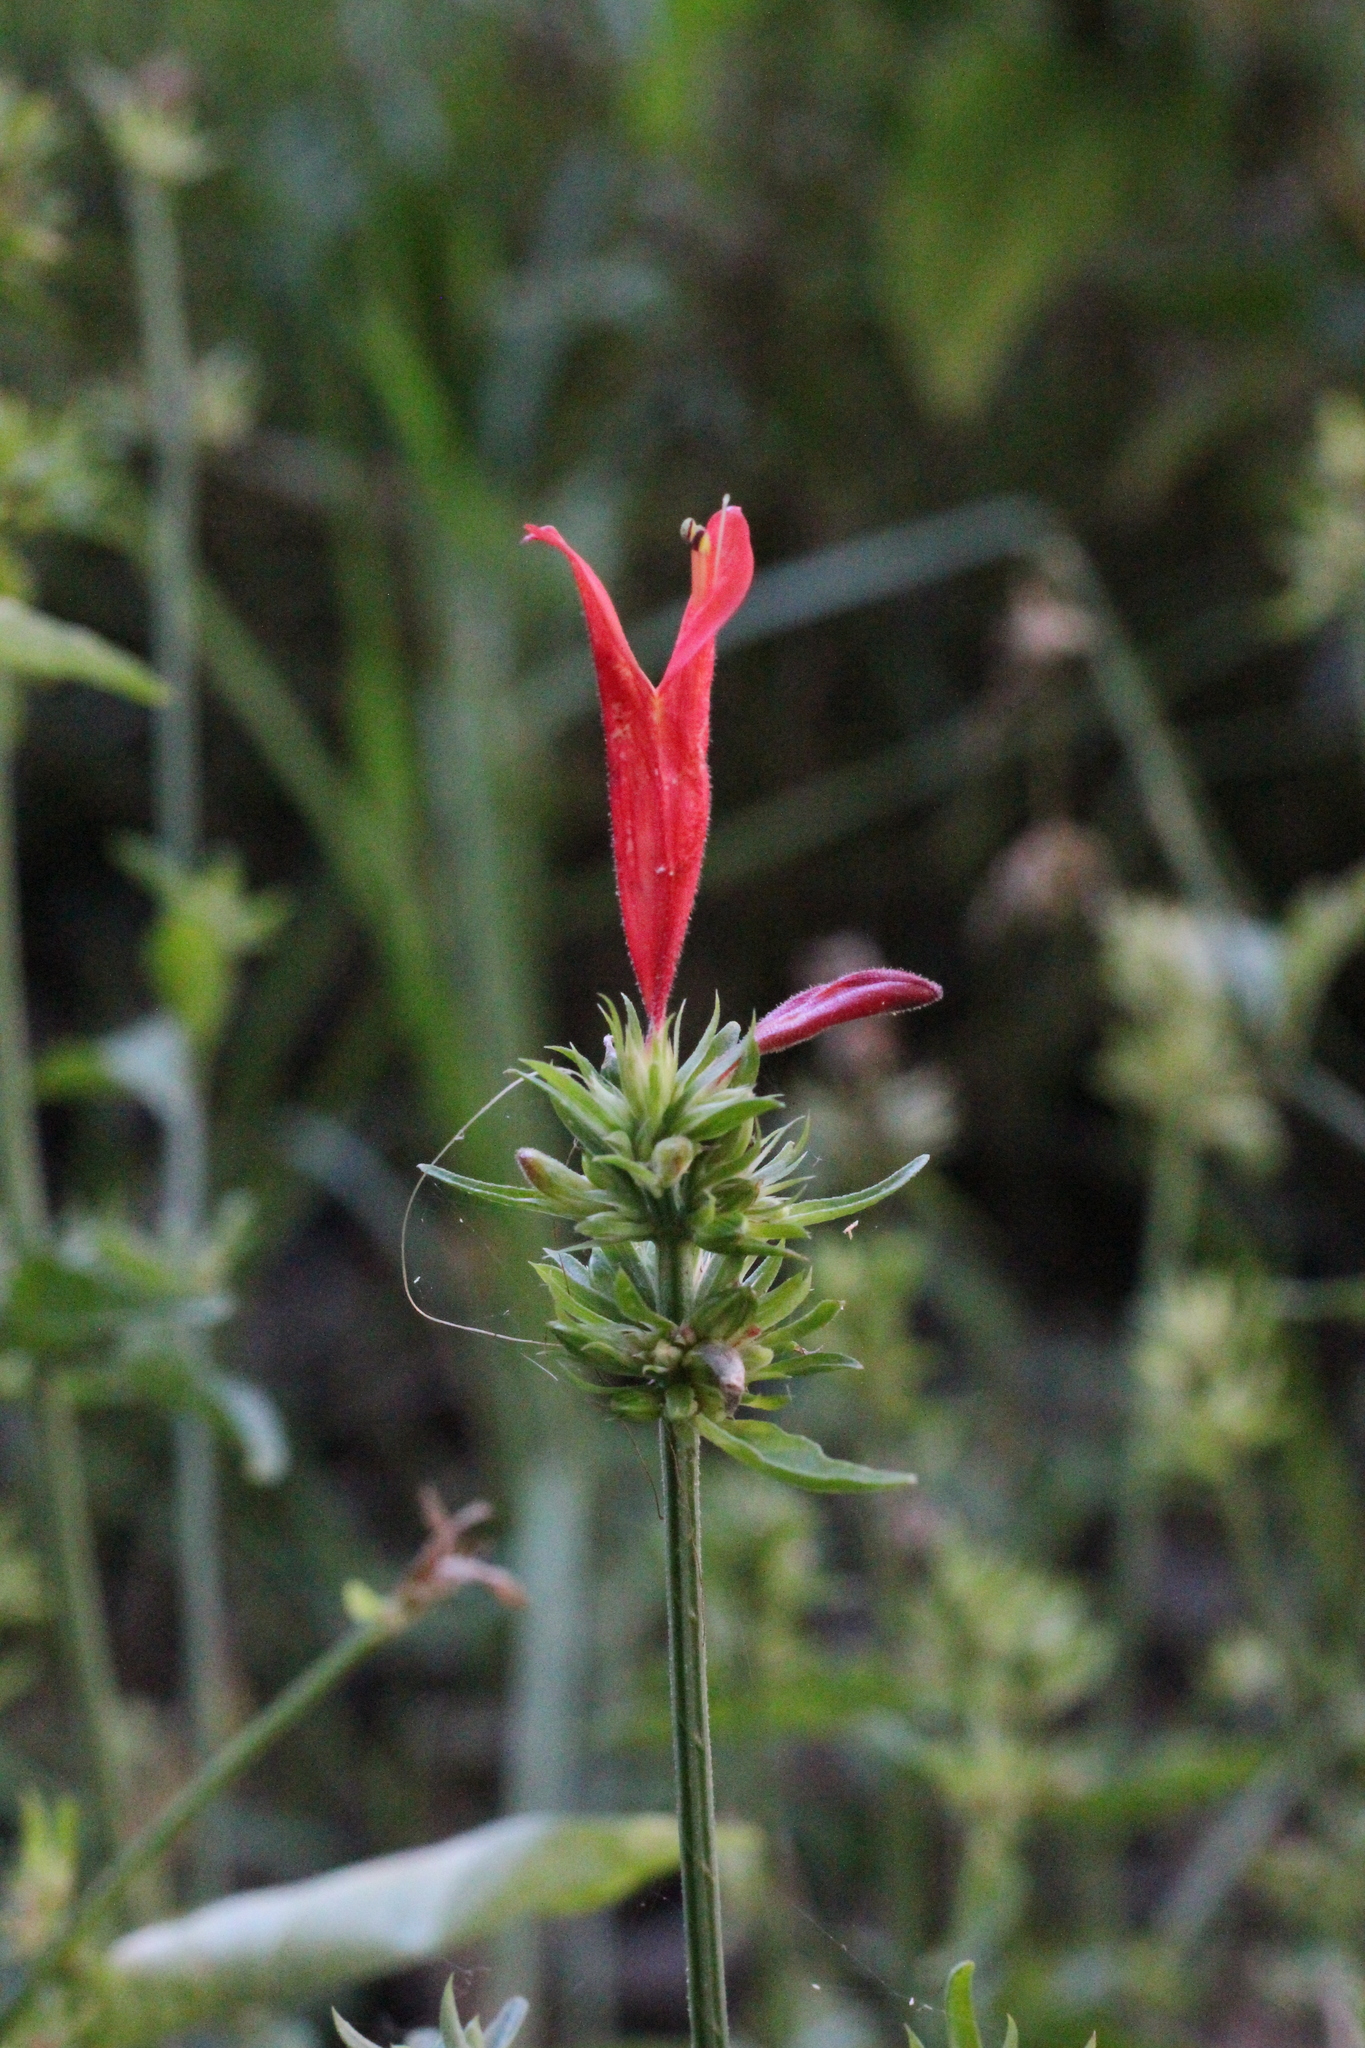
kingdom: Plantae
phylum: Tracheophyta
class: Magnoliopsida
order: Lamiales
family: Acanthaceae
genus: Dicliptera
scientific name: Dicliptera squarrosa
